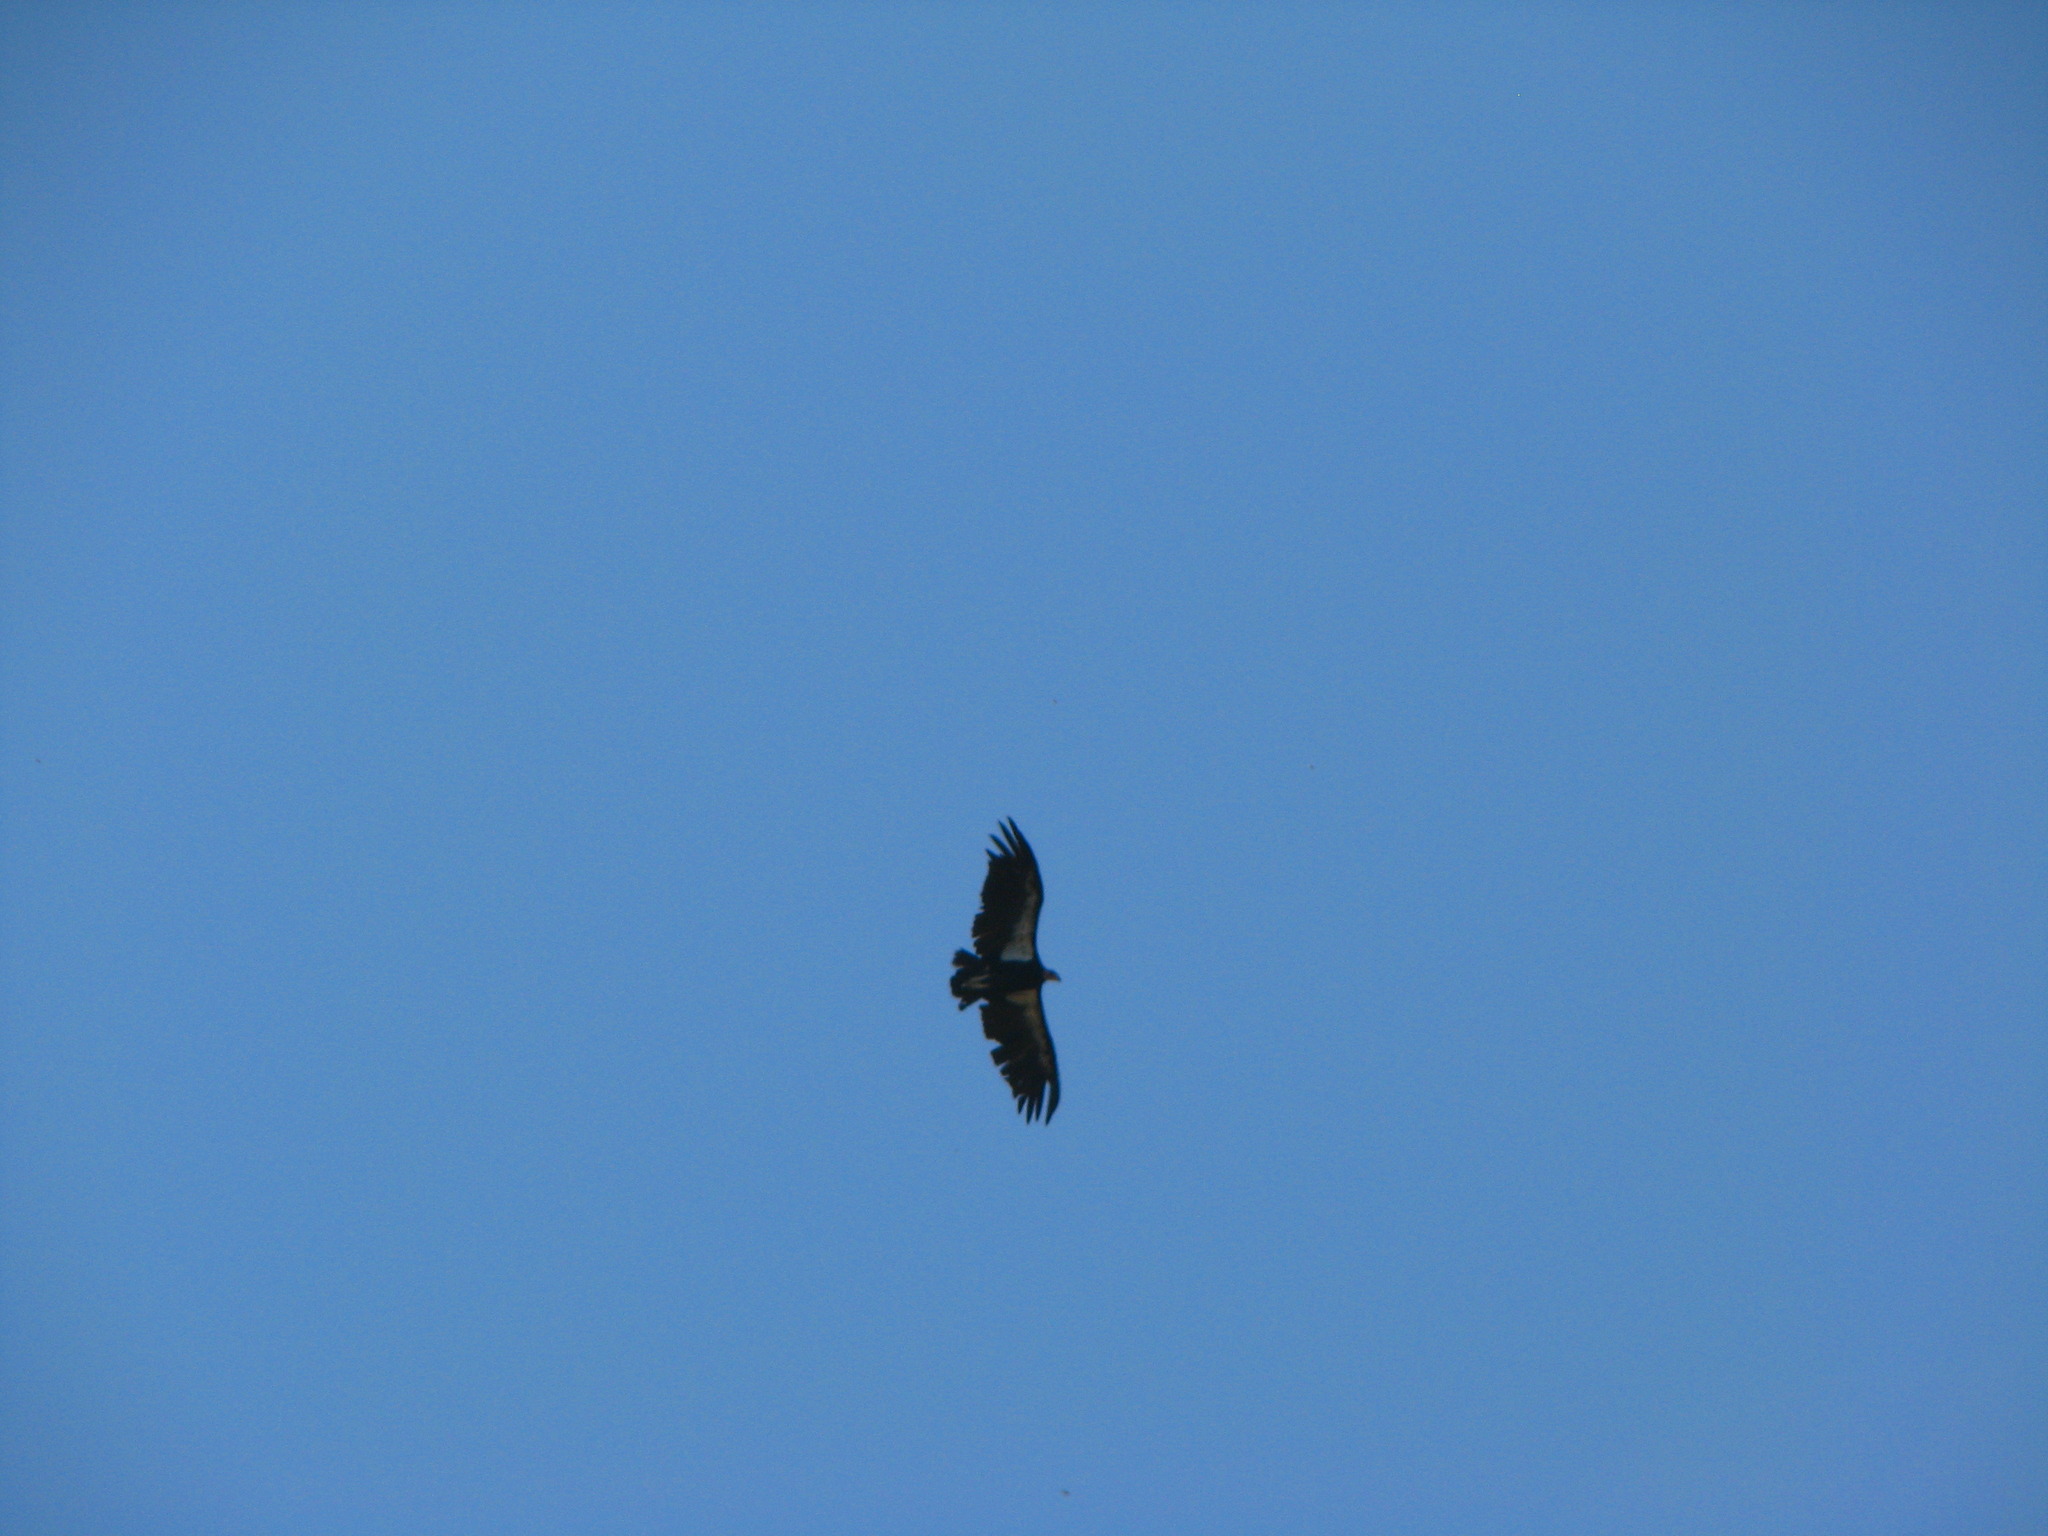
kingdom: Animalia
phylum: Chordata
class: Aves
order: Accipitriformes
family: Cathartidae
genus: Gymnogyps
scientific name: Gymnogyps californianus
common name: California condor
